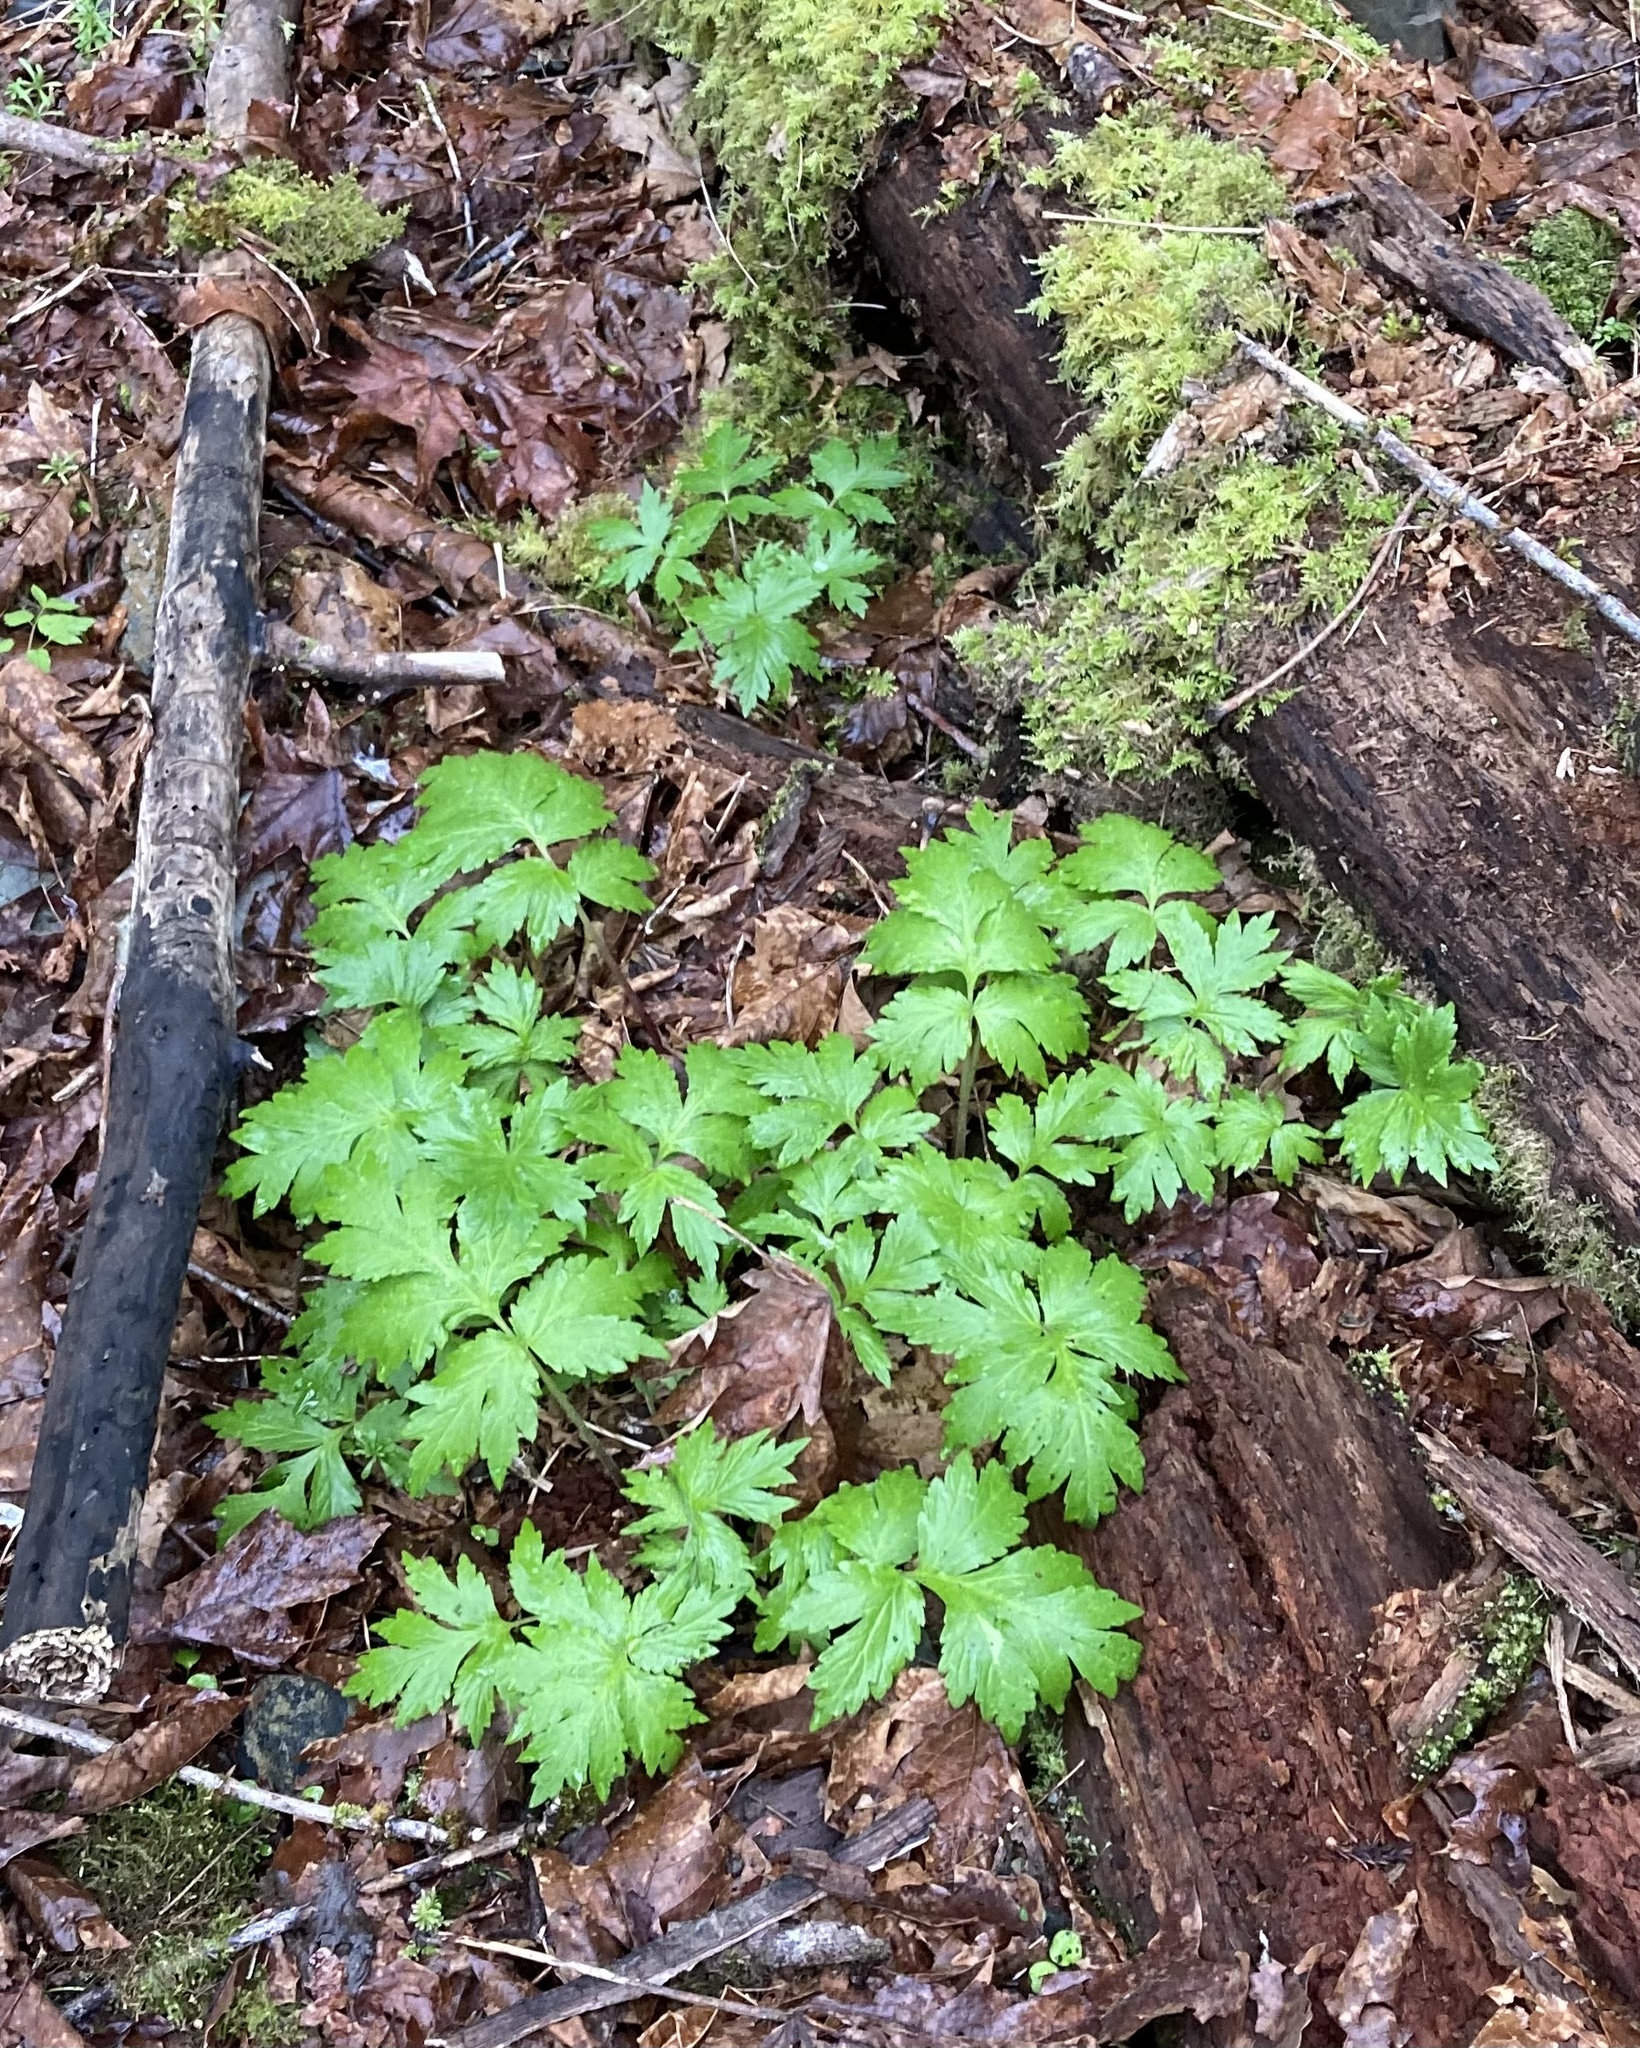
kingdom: Plantae
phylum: Tracheophyta
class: Magnoliopsida
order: Boraginales
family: Hydrophyllaceae
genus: Hydrophyllum
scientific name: Hydrophyllum tenuipes
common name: Pacific waterleaf
